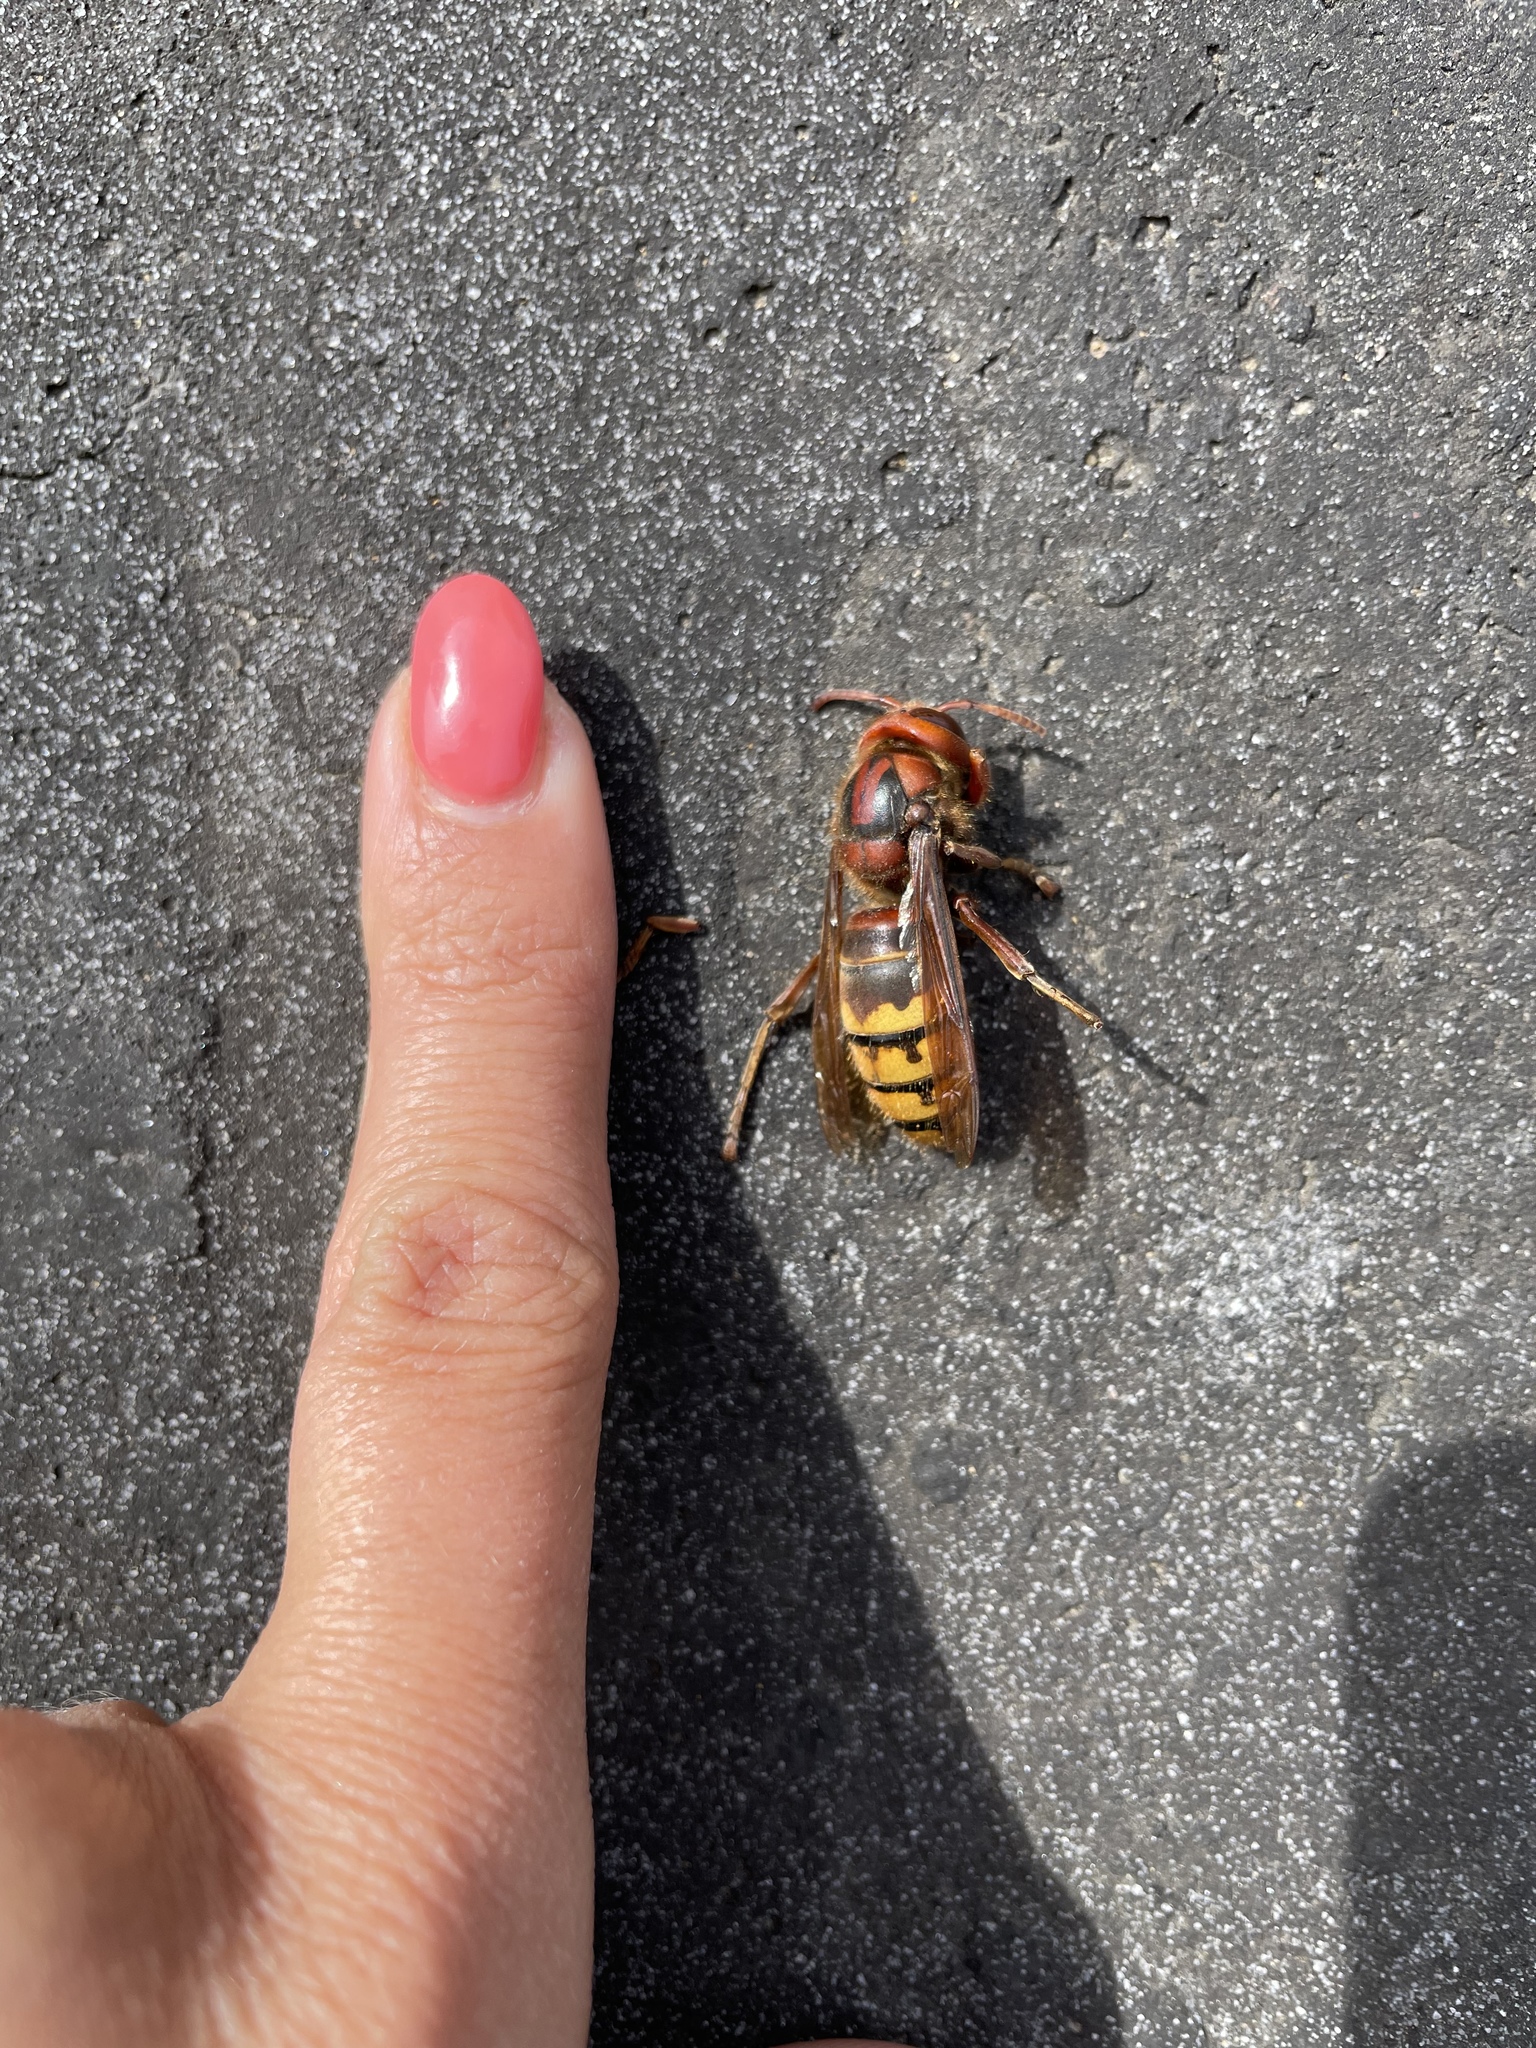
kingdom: Animalia
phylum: Arthropoda
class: Insecta
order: Hymenoptera
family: Vespidae
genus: Vespa
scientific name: Vespa crabro
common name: Hornet
